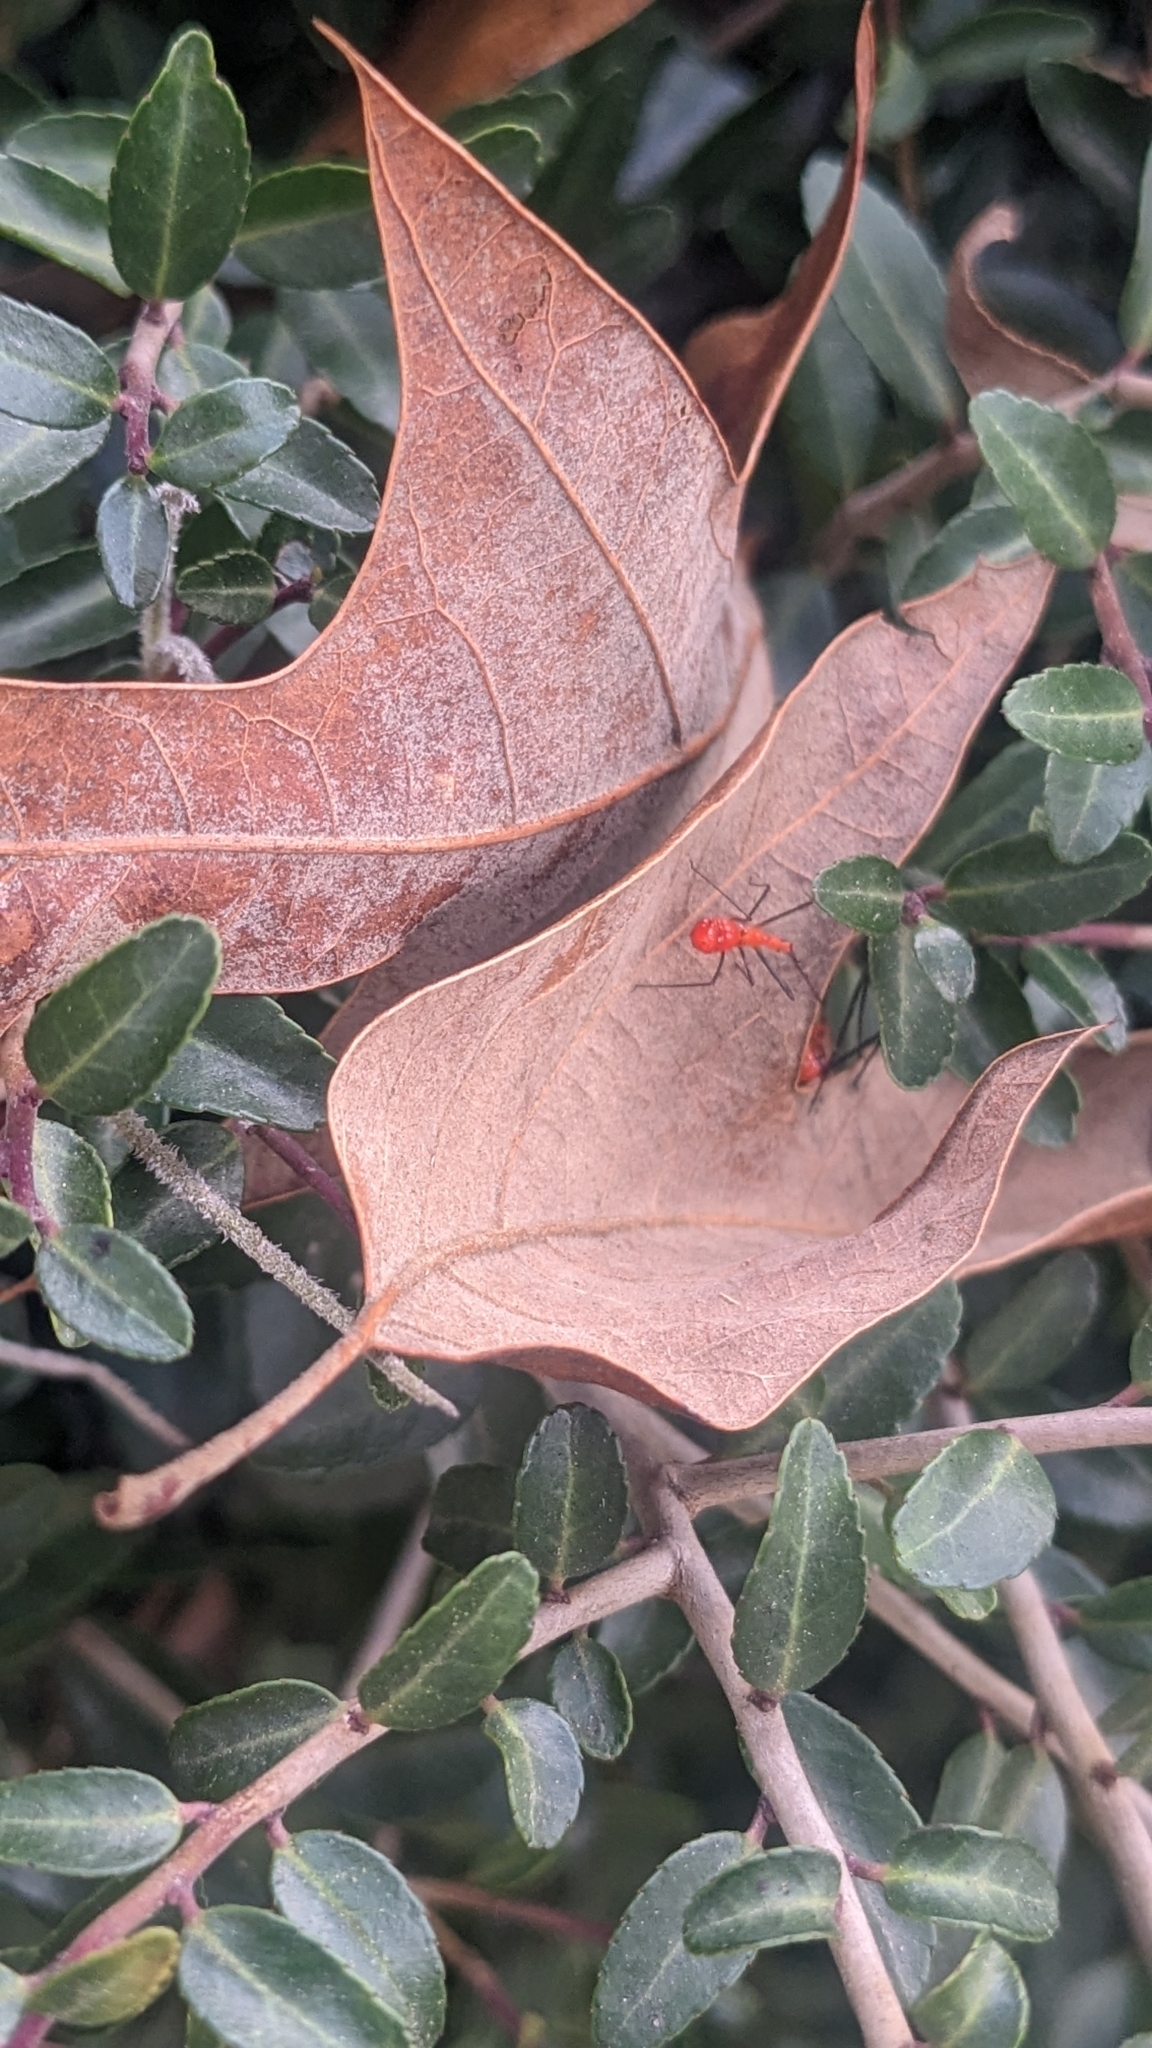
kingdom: Animalia
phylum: Arthropoda
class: Insecta
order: Hemiptera
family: Reduviidae
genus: Zelus
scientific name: Zelus longipes
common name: Milkweed assassin bug
